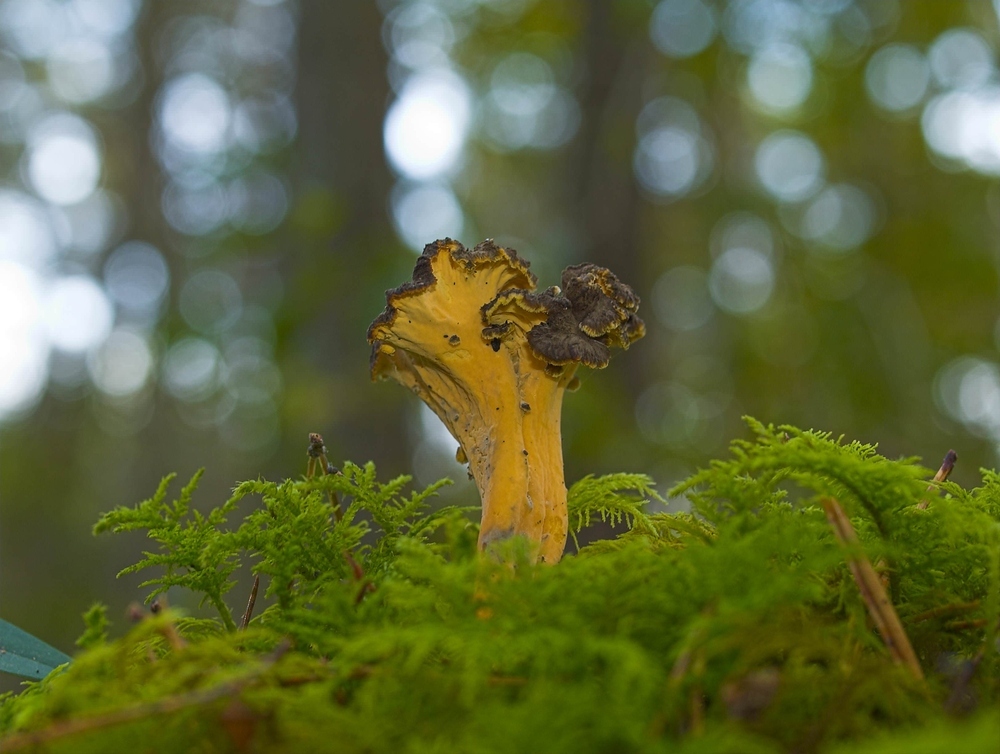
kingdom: Fungi
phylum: Basidiomycota
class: Agaricomycetes
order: Cantharellales
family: Hydnaceae
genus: Craterellus
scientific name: Craterellus lutescens
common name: Golden chanterelle
